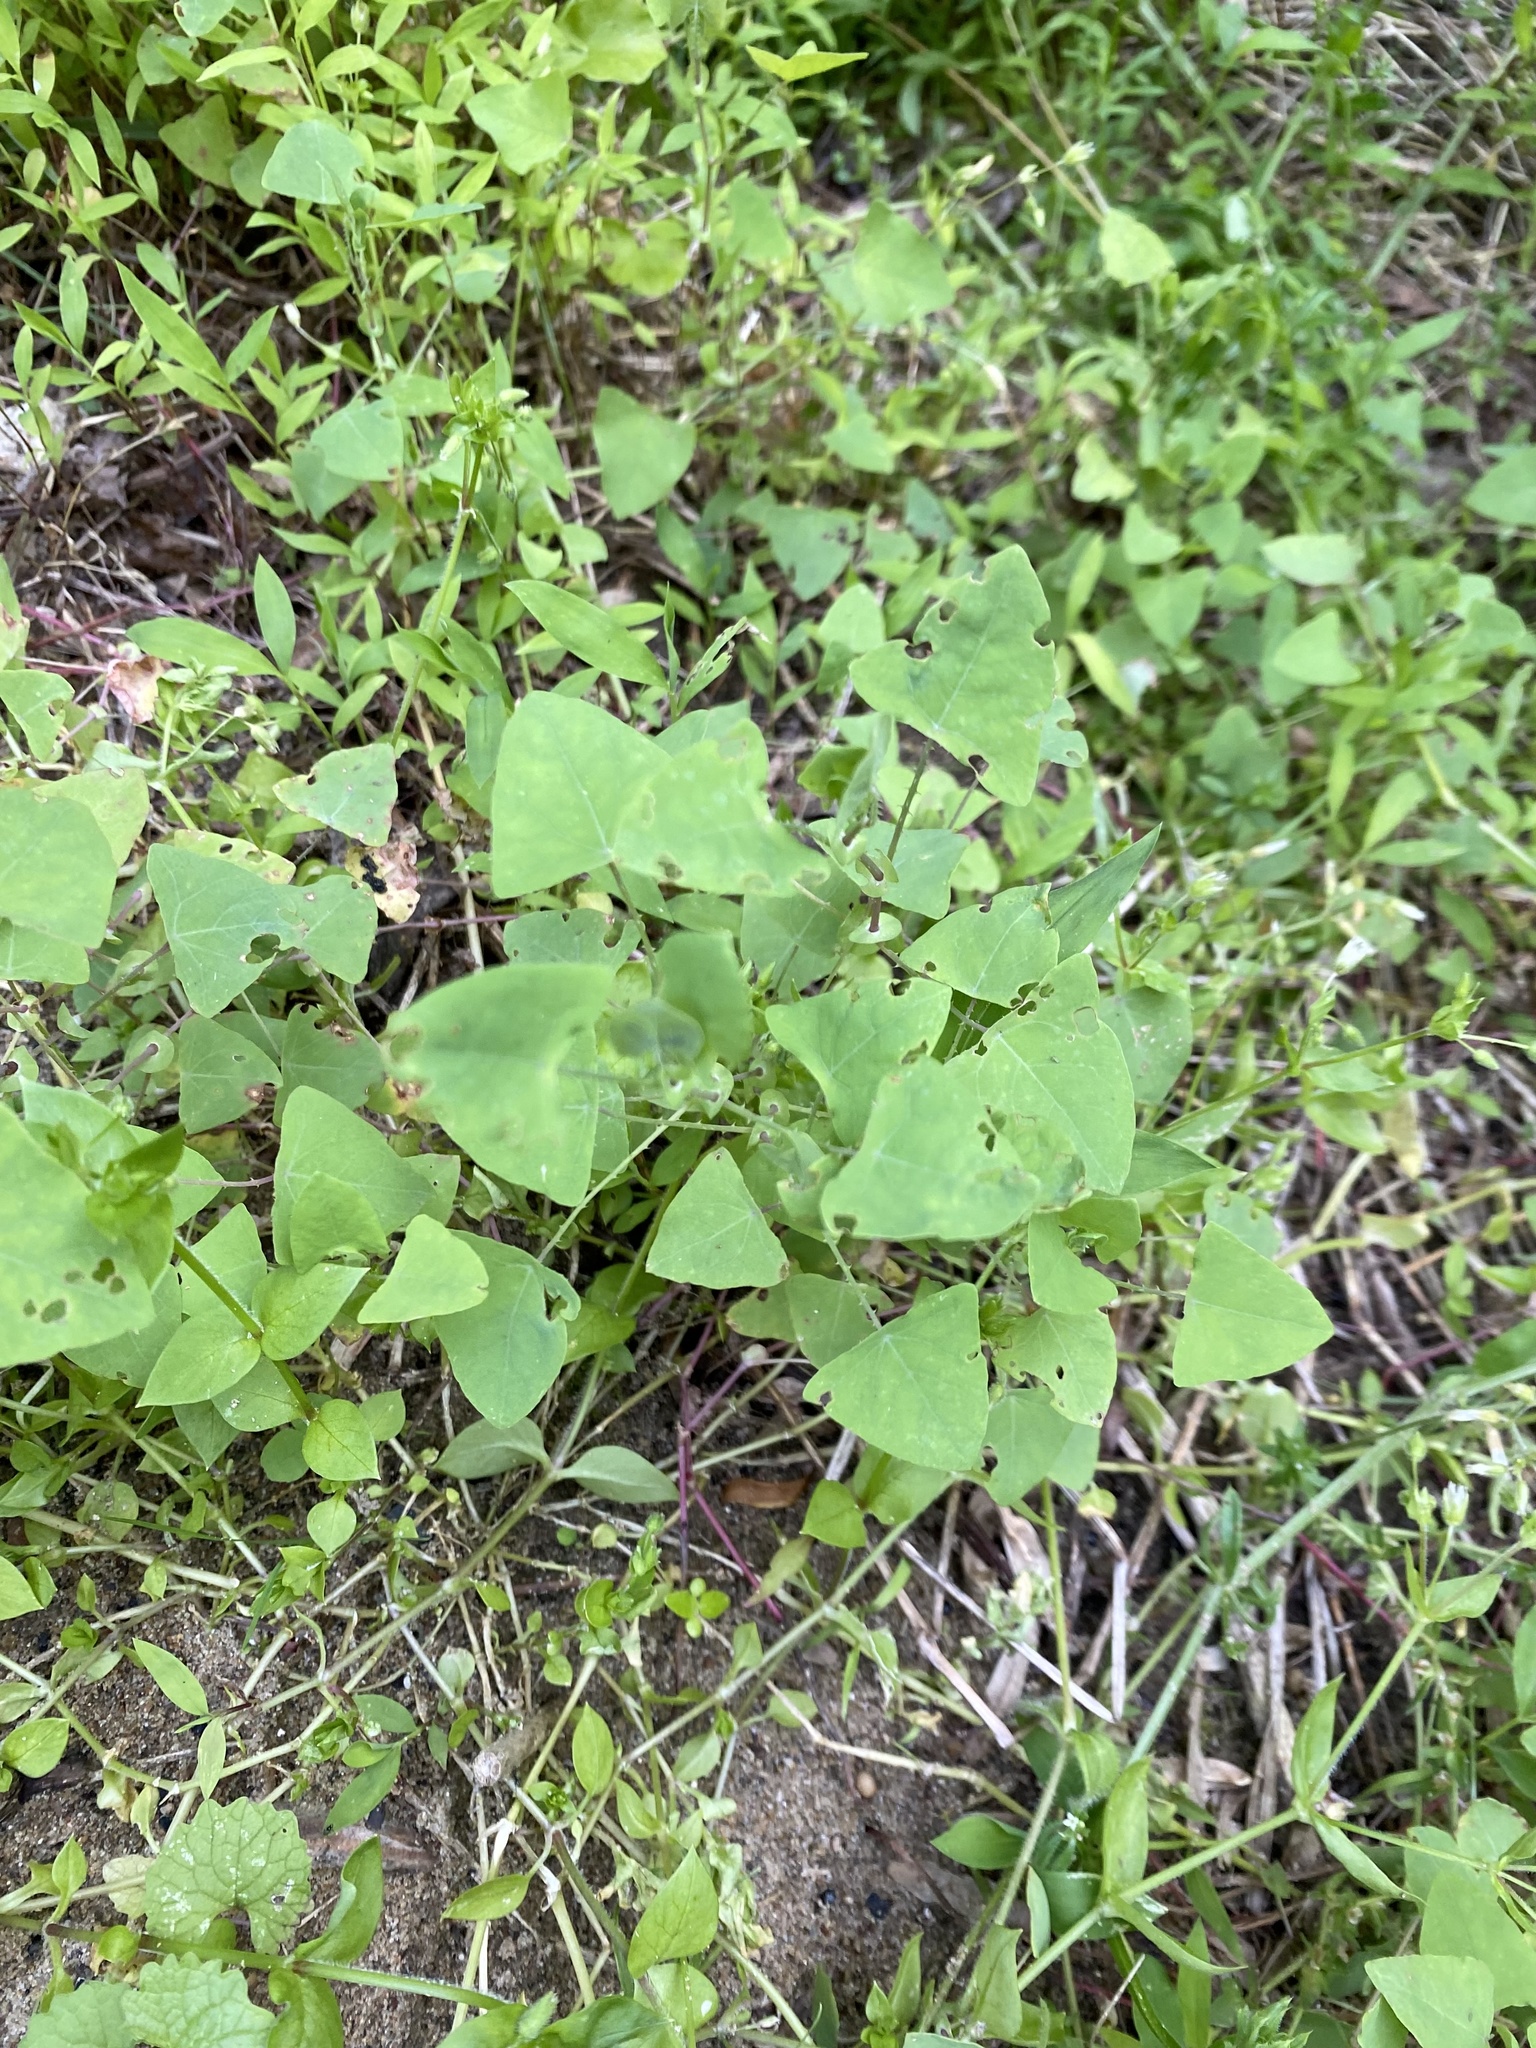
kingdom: Plantae
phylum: Tracheophyta
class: Magnoliopsida
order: Caryophyllales
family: Polygonaceae
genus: Persicaria
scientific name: Persicaria perfoliata
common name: Asiatic tearthumb
